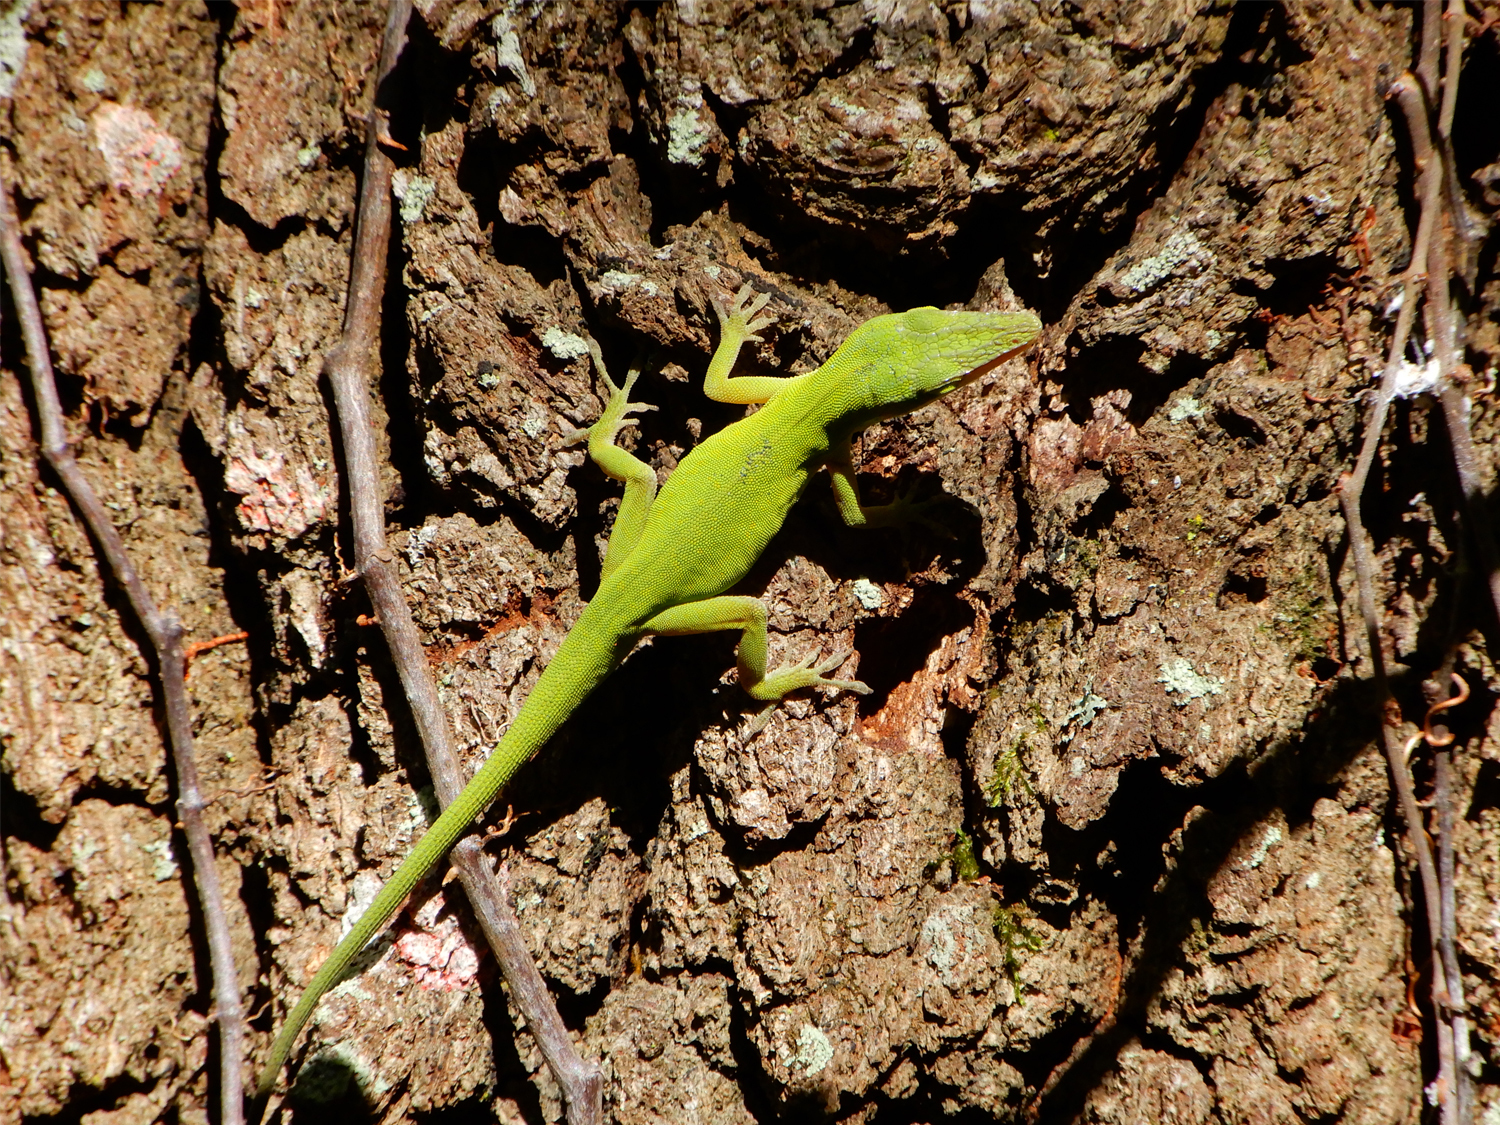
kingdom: Animalia
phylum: Chordata
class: Squamata
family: Dactyloidae
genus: Anolis
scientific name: Anolis carolinensis
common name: Green anole
